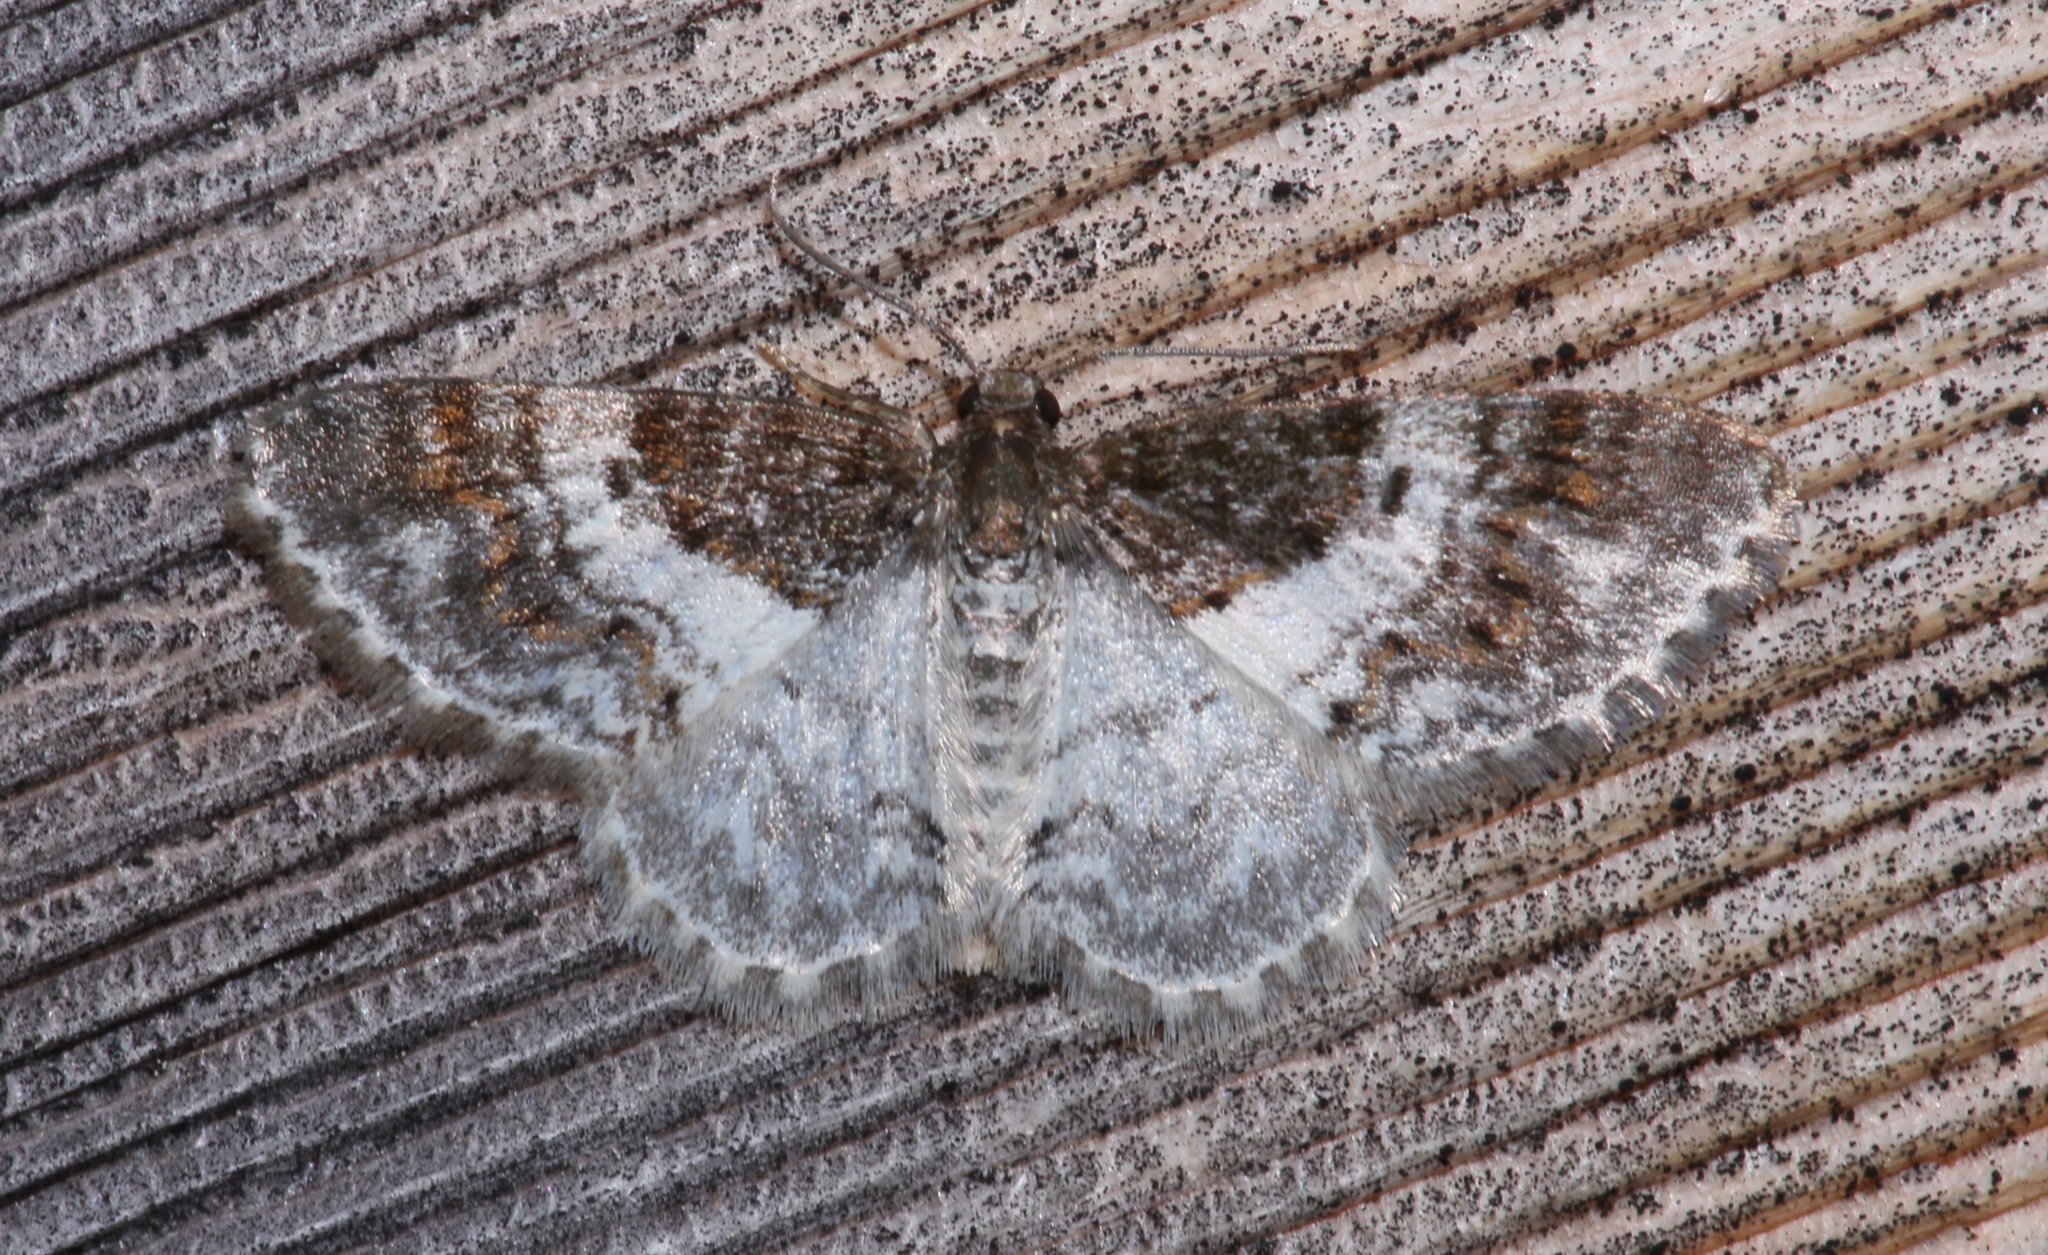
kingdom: Animalia
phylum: Arthropoda
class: Insecta
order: Lepidoptera
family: Geometridae
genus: Hydrelia
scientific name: Hydrelia lucata
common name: Light carpet moth
